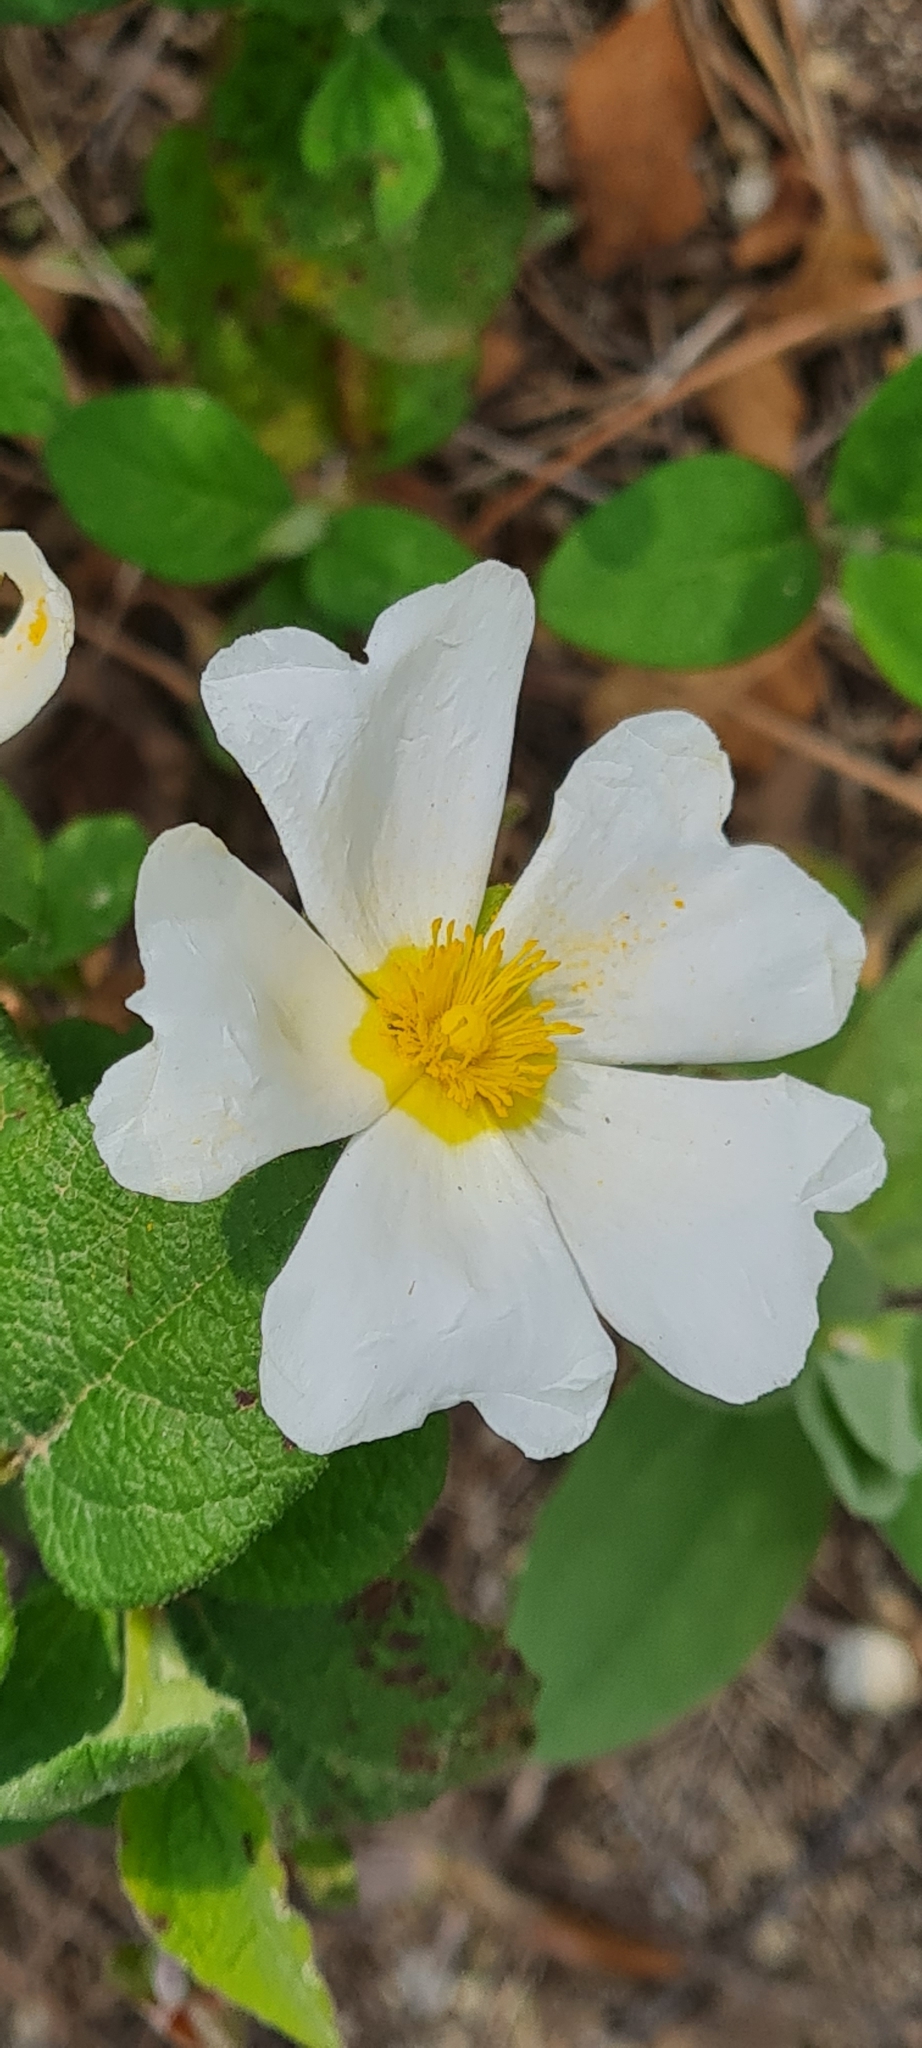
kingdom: Plantae
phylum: Tracheophyta
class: Magnoliopsida
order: Malvales
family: Cistaceae
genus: Cistus
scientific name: Cistus salviifolius
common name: Salvia cistus
